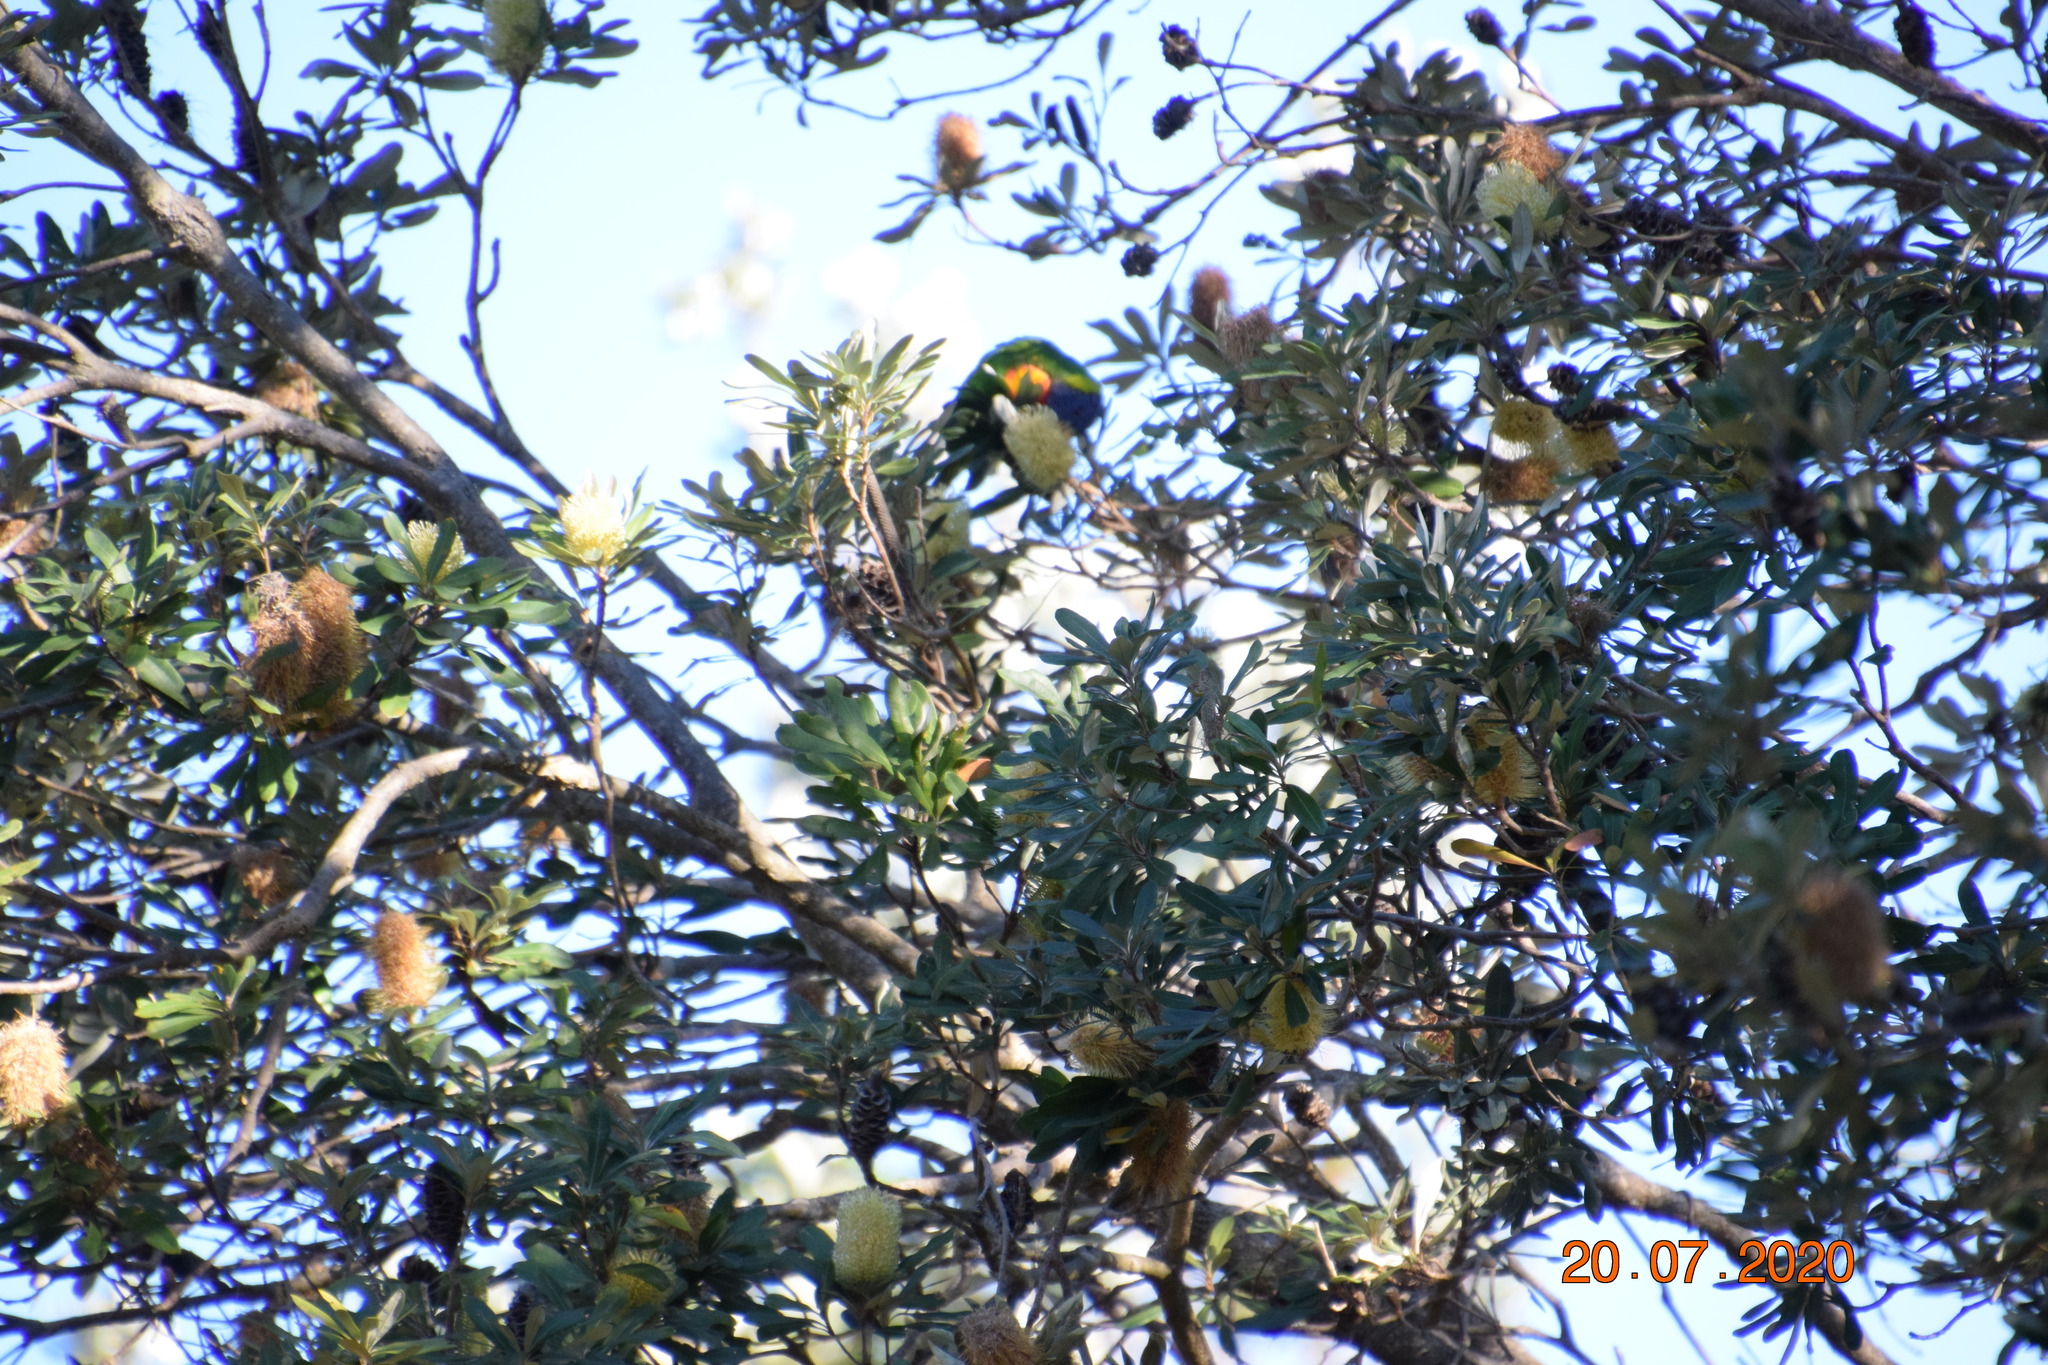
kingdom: Animalia
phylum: Chordata
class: Aves
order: Psittaciformes
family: Psittacidae
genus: Trichoglossus
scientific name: Trichoglossus haematodus
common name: Coconut lorikeet
